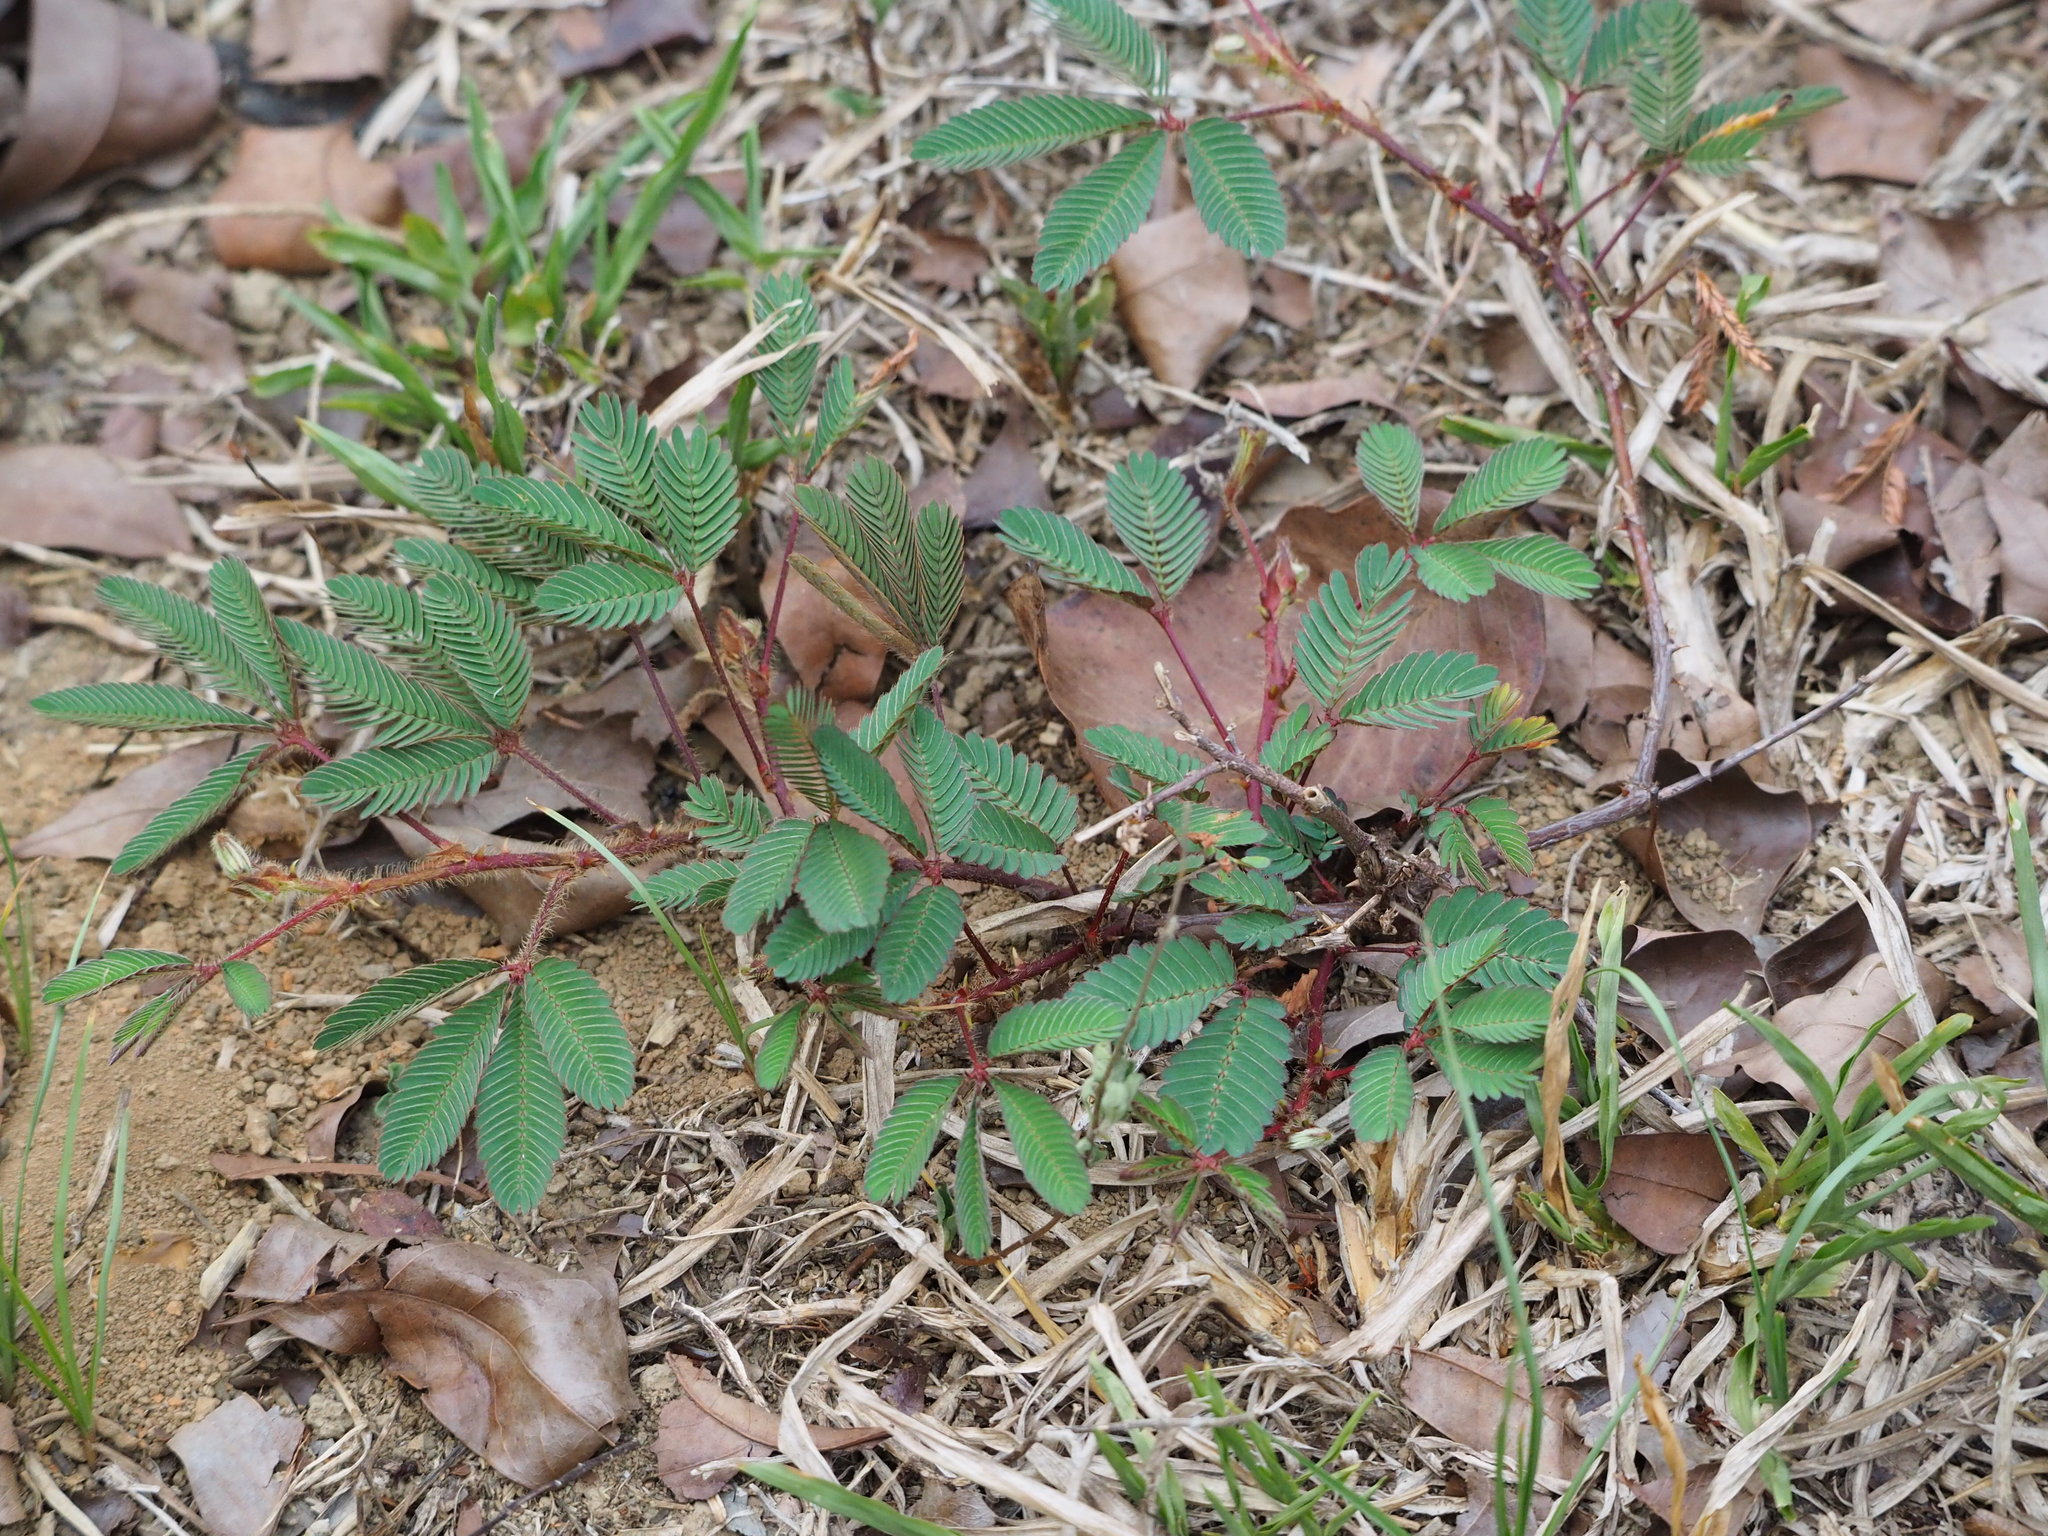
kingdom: Plantae
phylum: Tracheophyta
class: Magnoliopsida
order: Fabales
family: Fabaceae
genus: Mimosa
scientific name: Mimosa pudica
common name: Sensitive plant
